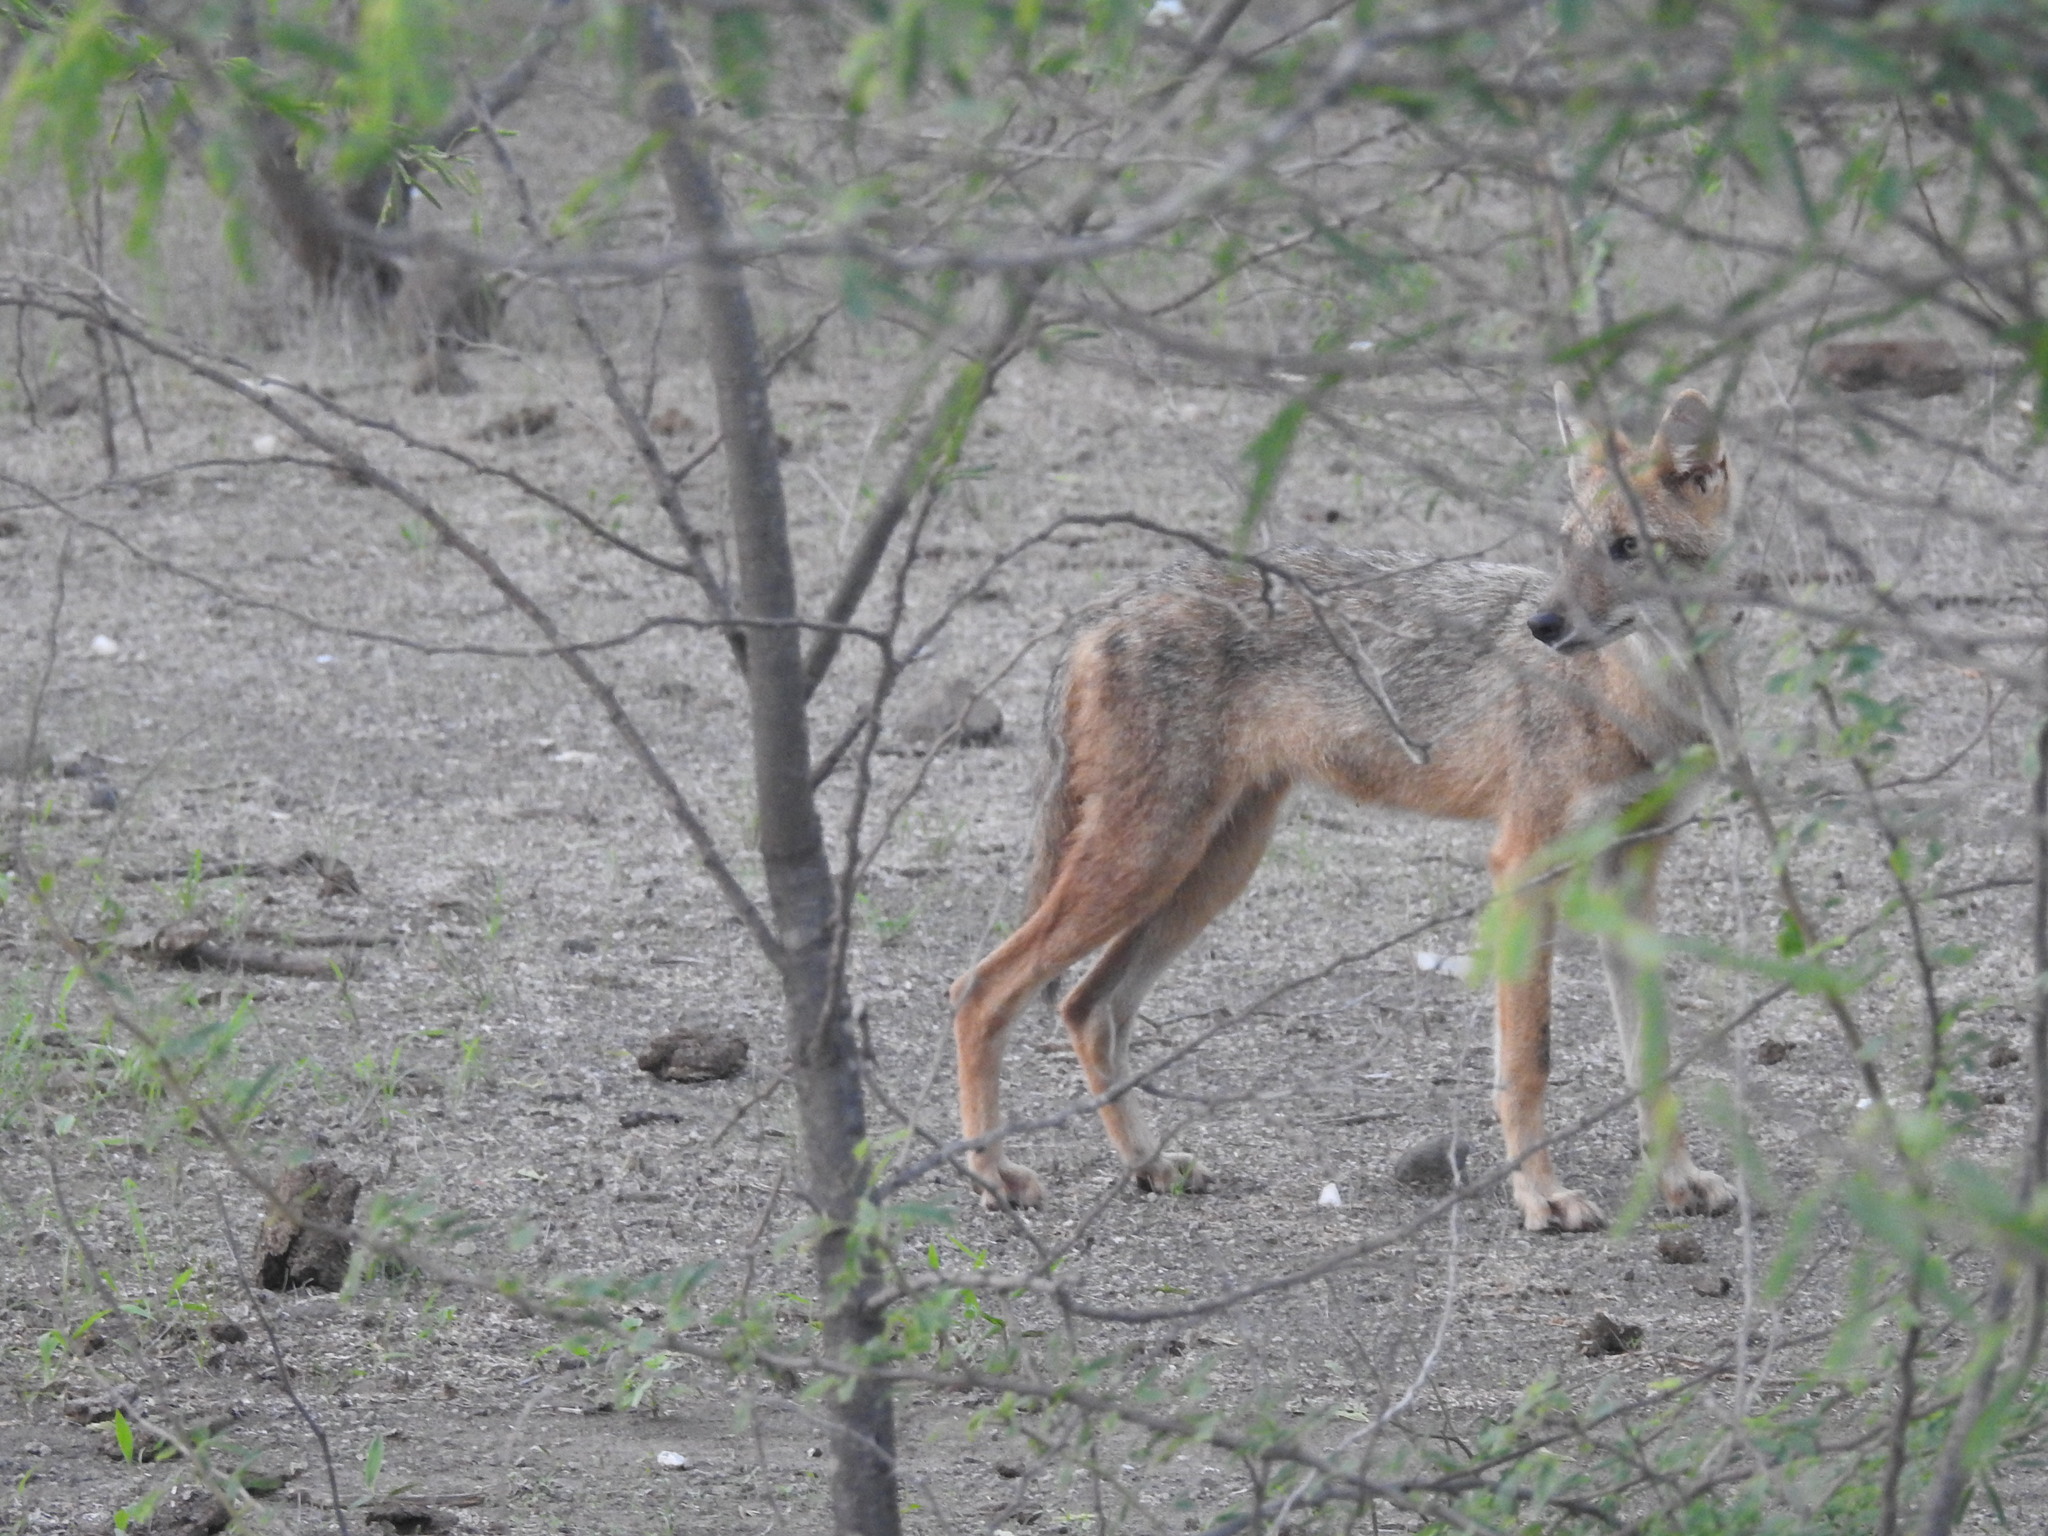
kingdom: Animalia
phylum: Chordata
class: Mammalia
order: Carnivora
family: Canidae
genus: Canis
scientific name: Canis aureus
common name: Golden jackal
